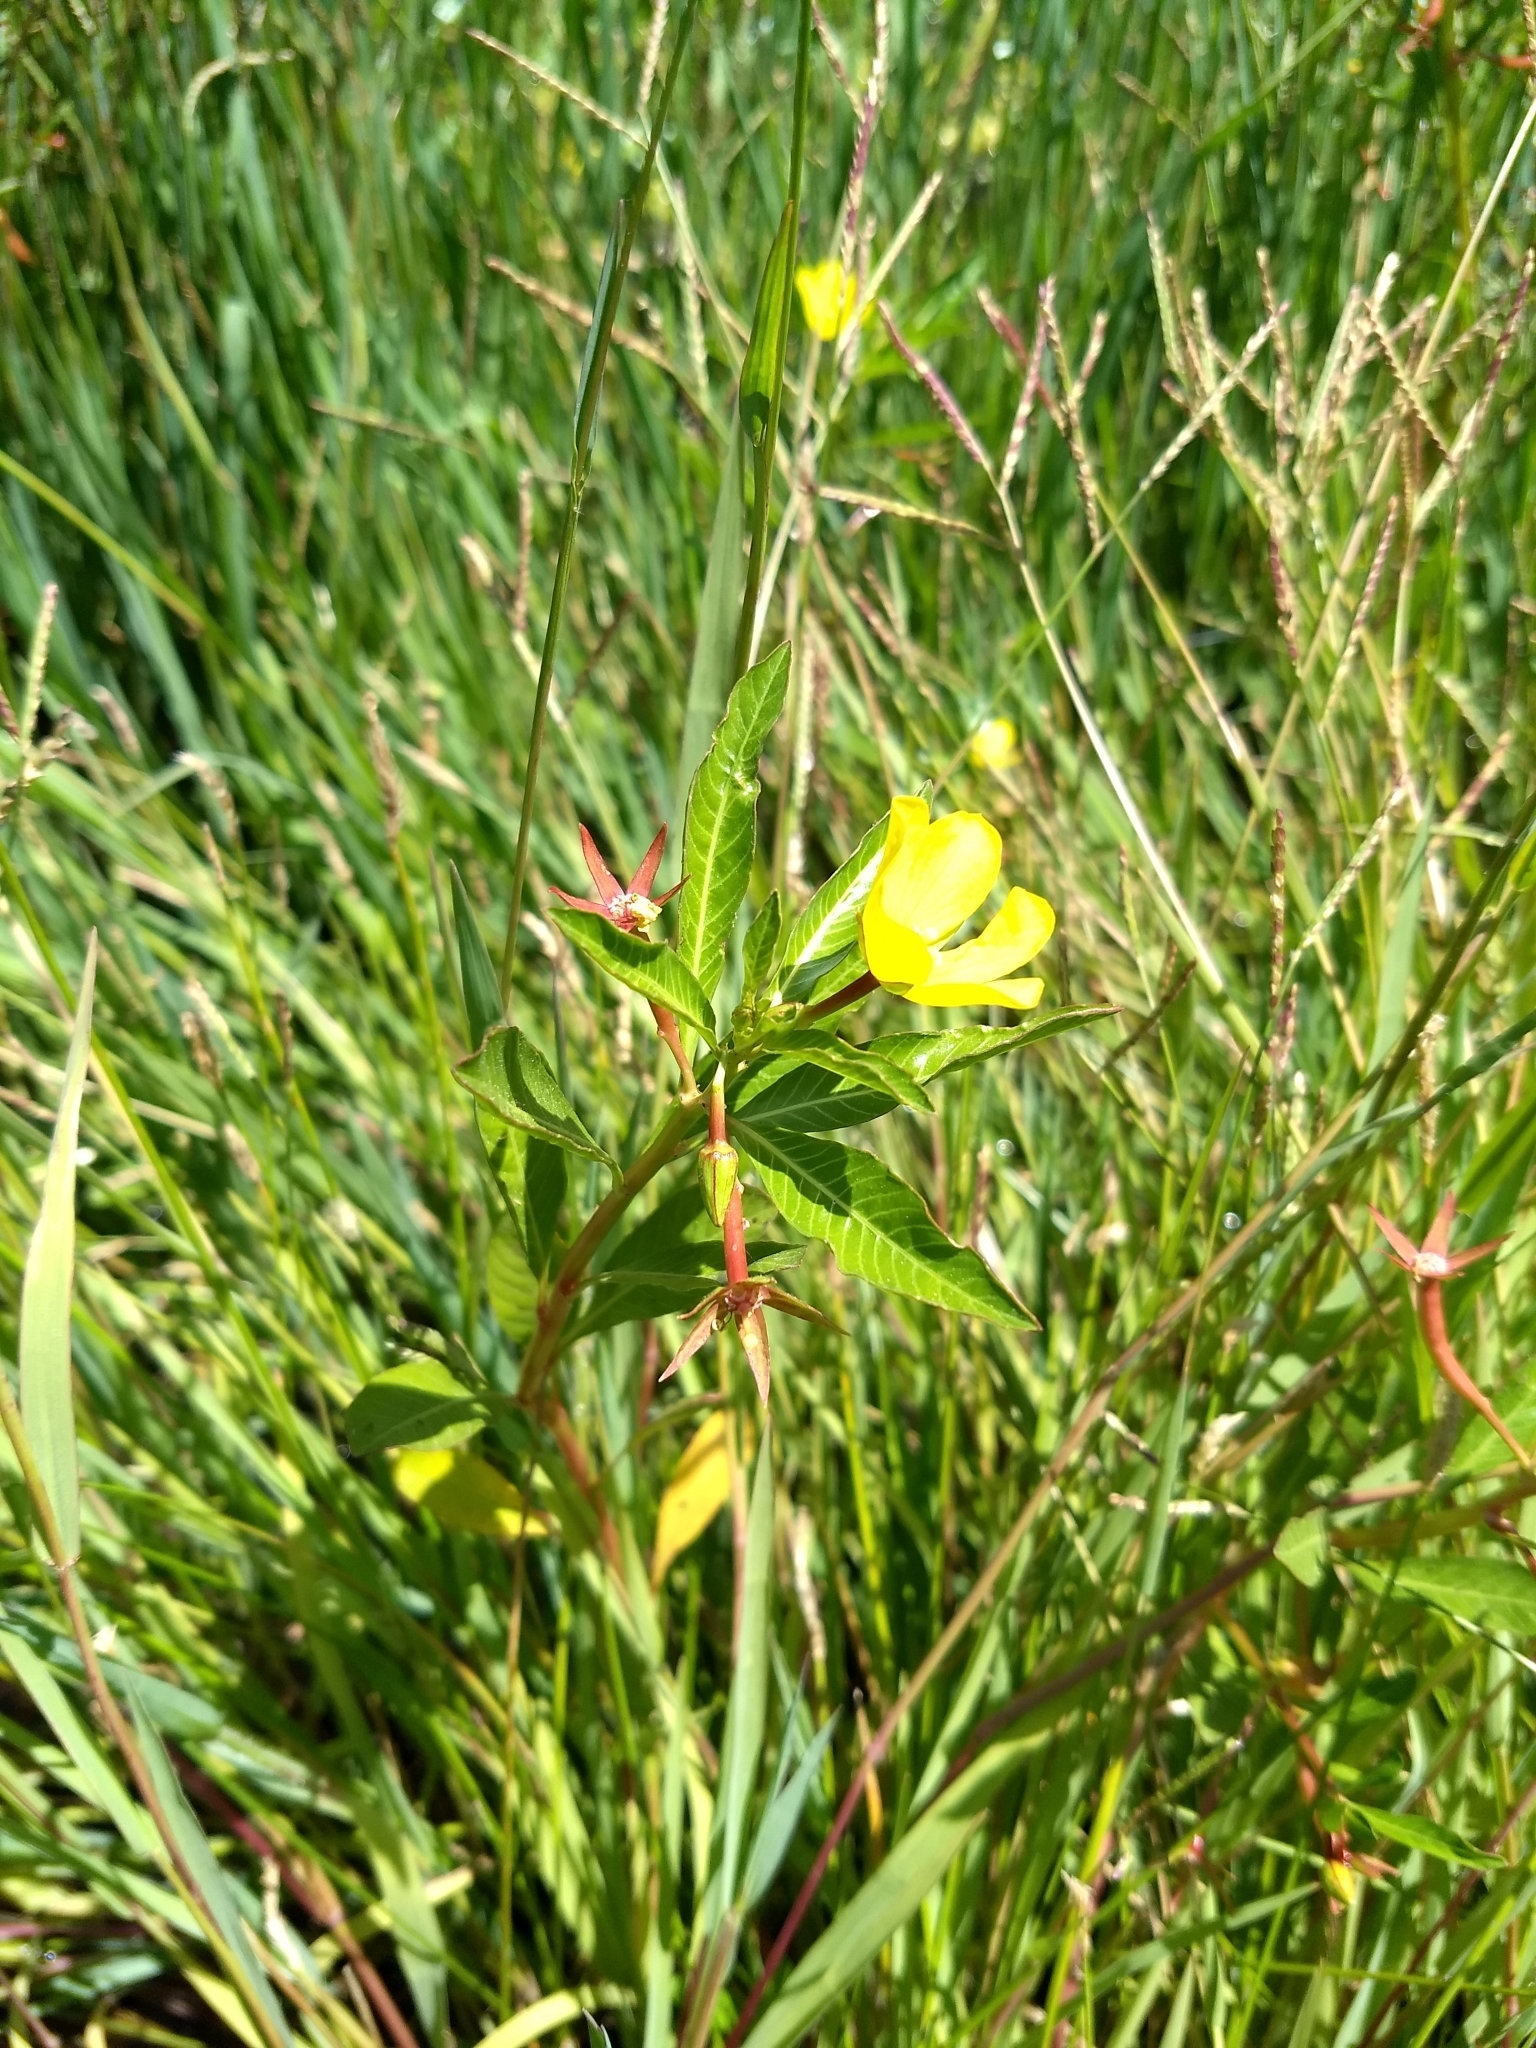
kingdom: Plantae
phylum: Tracheophyta
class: Magnoliopsida
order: Myrtales
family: Onagraceae
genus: Ludwigia
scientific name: Ludwigia peploides
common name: Floating primrose-willow
